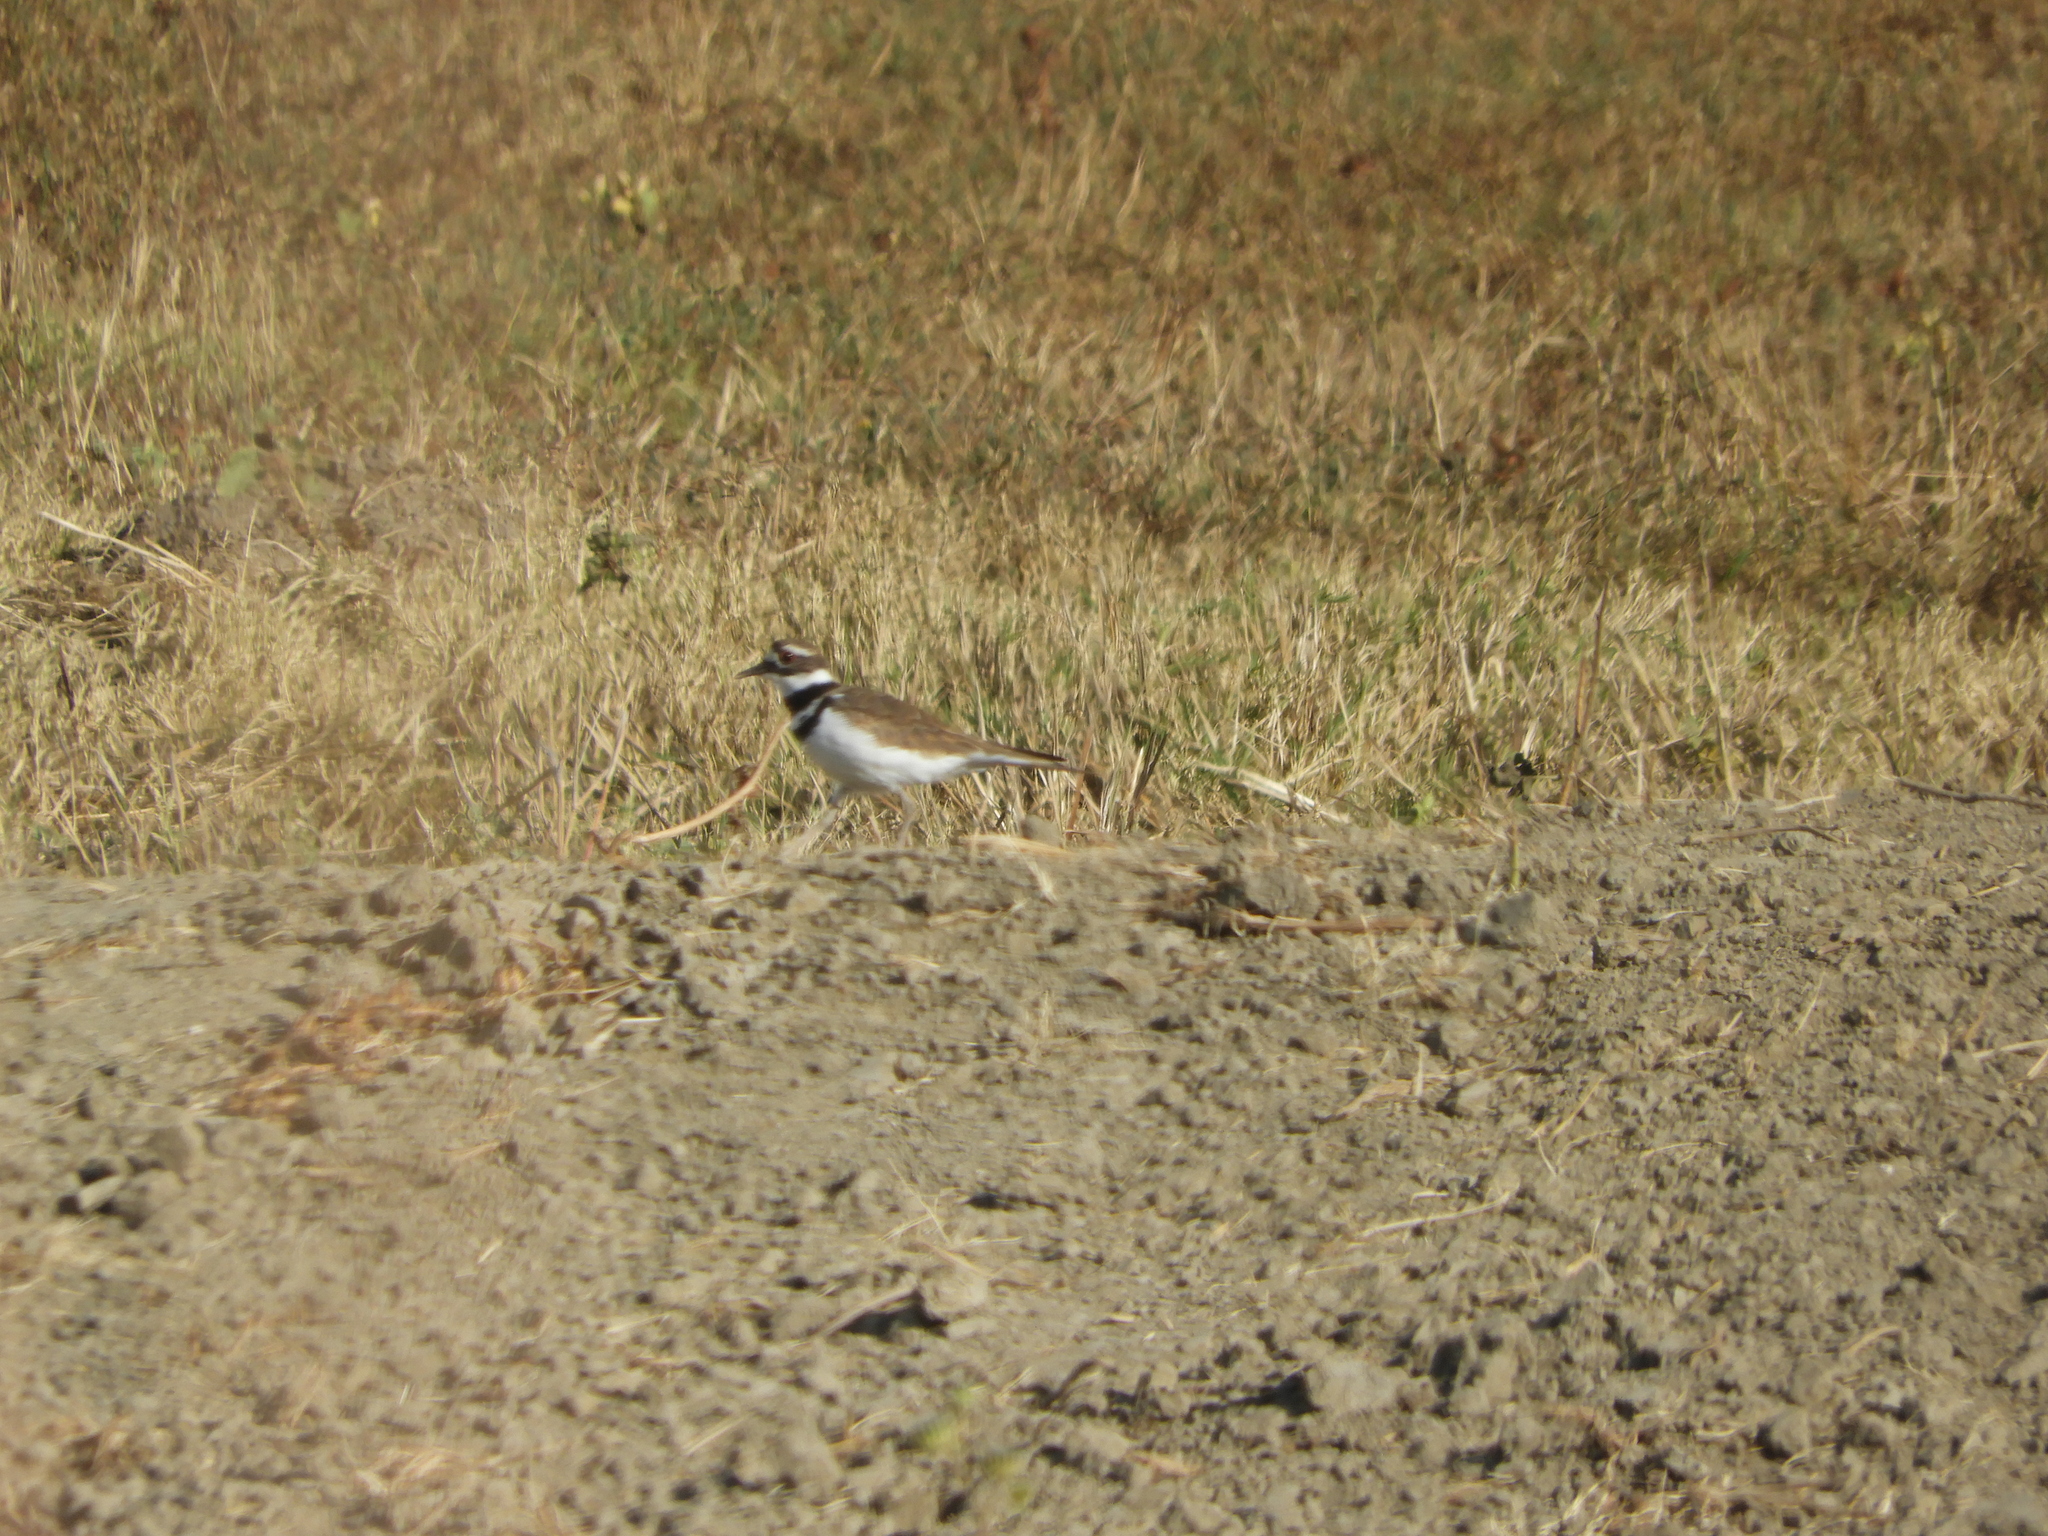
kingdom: Animalia
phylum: Chordata
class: Aves
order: Charadriiformes
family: Charadriidae
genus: Charadrius
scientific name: Charadrius vociferus
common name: Killdeer
